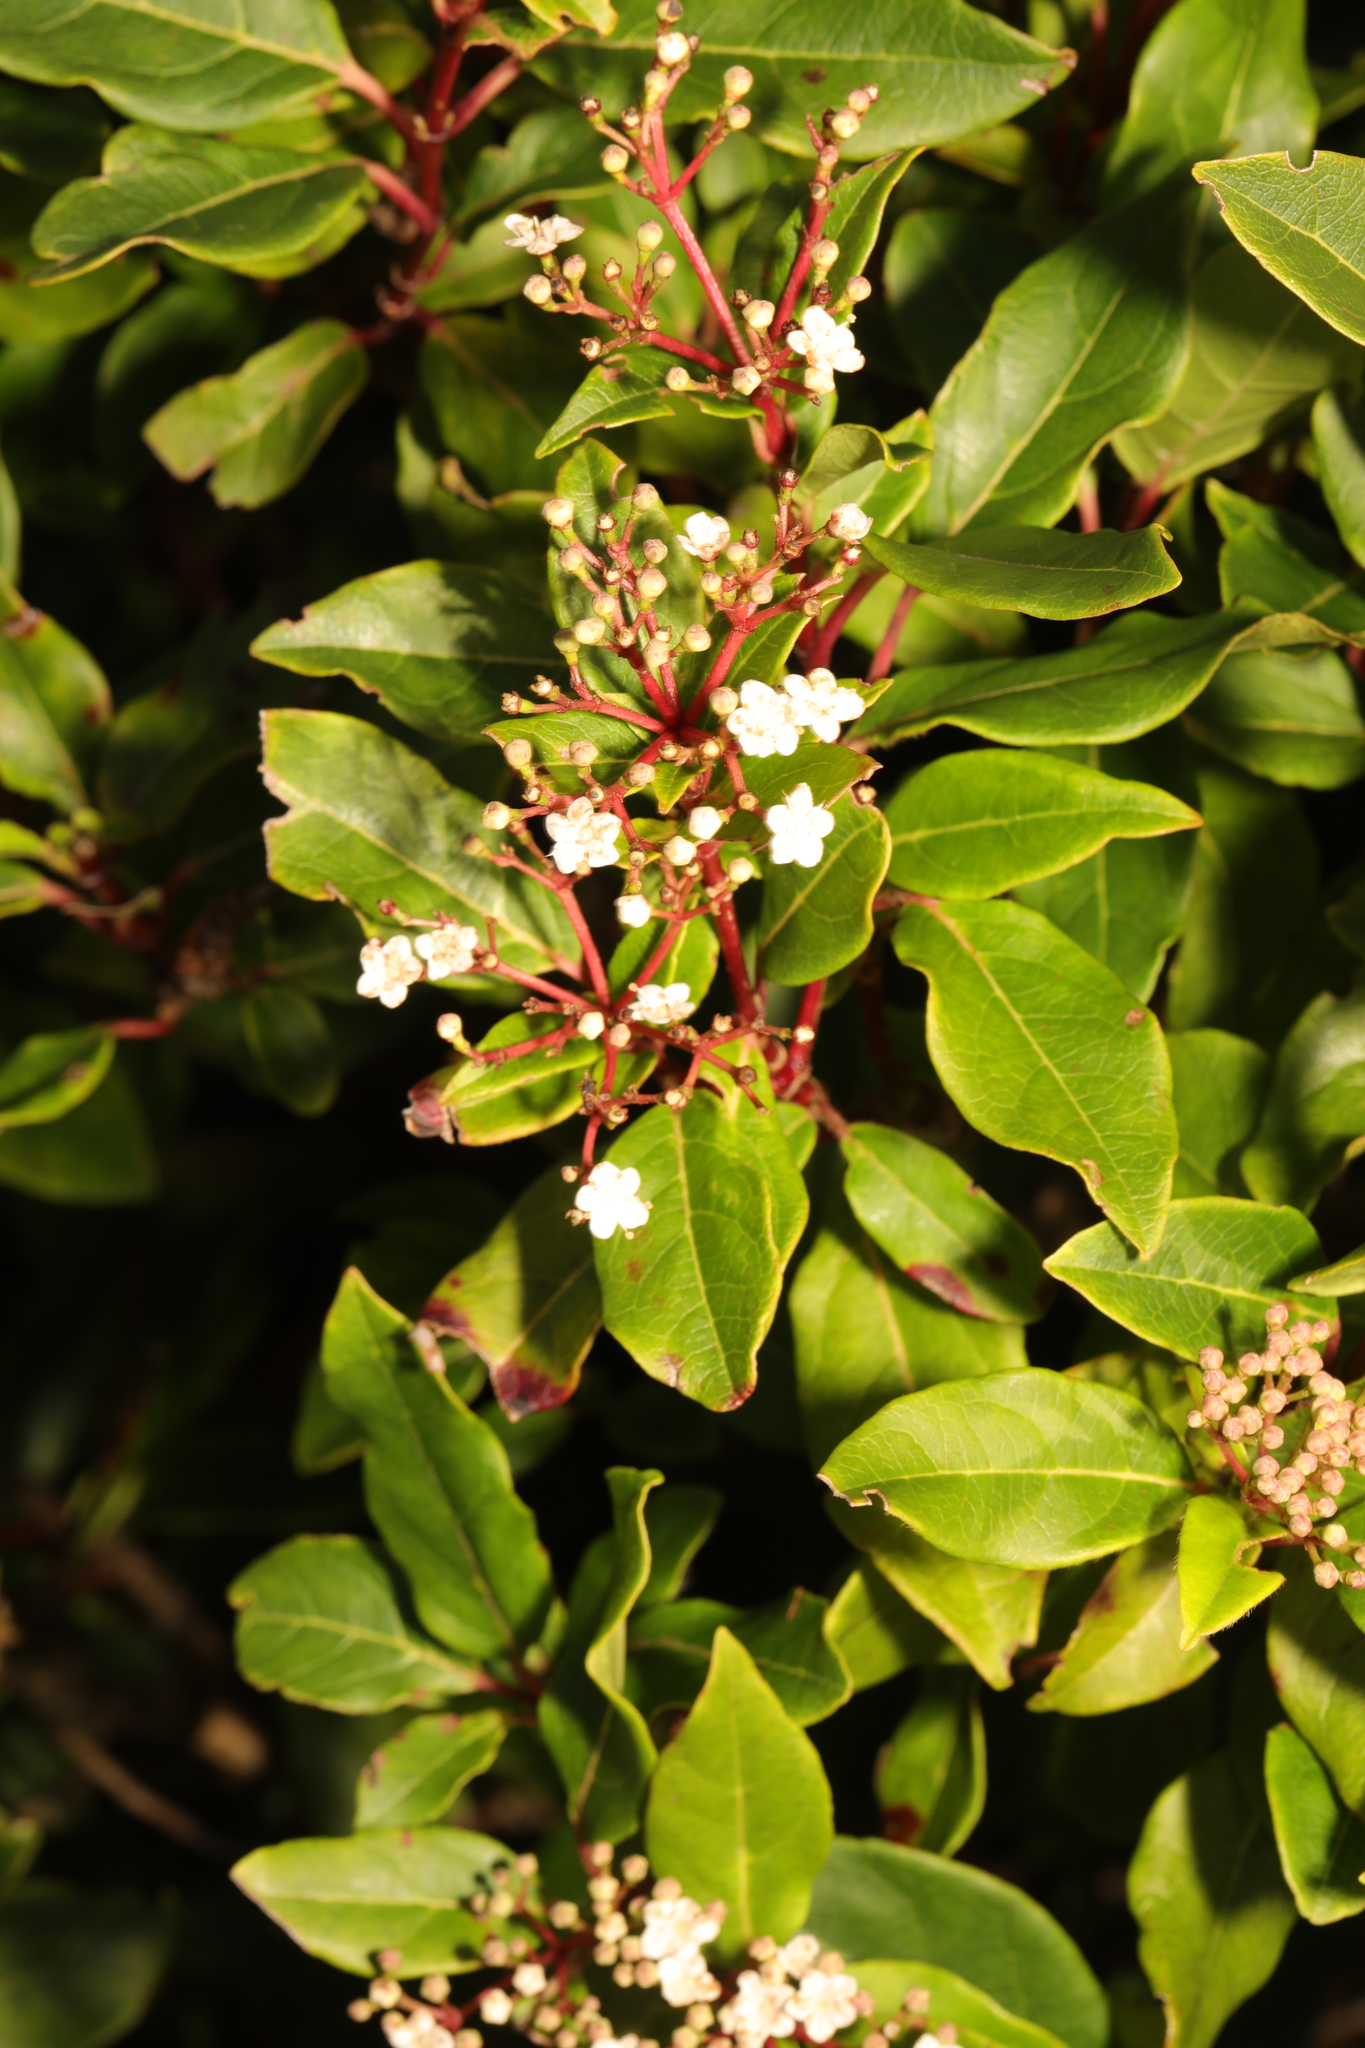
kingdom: Plantae
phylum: Tracheophyta
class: Magnoliopsida
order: Dipsacales
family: Viburnaceae
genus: Viburnum
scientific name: Viburnum tinus
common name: Laurustinus
